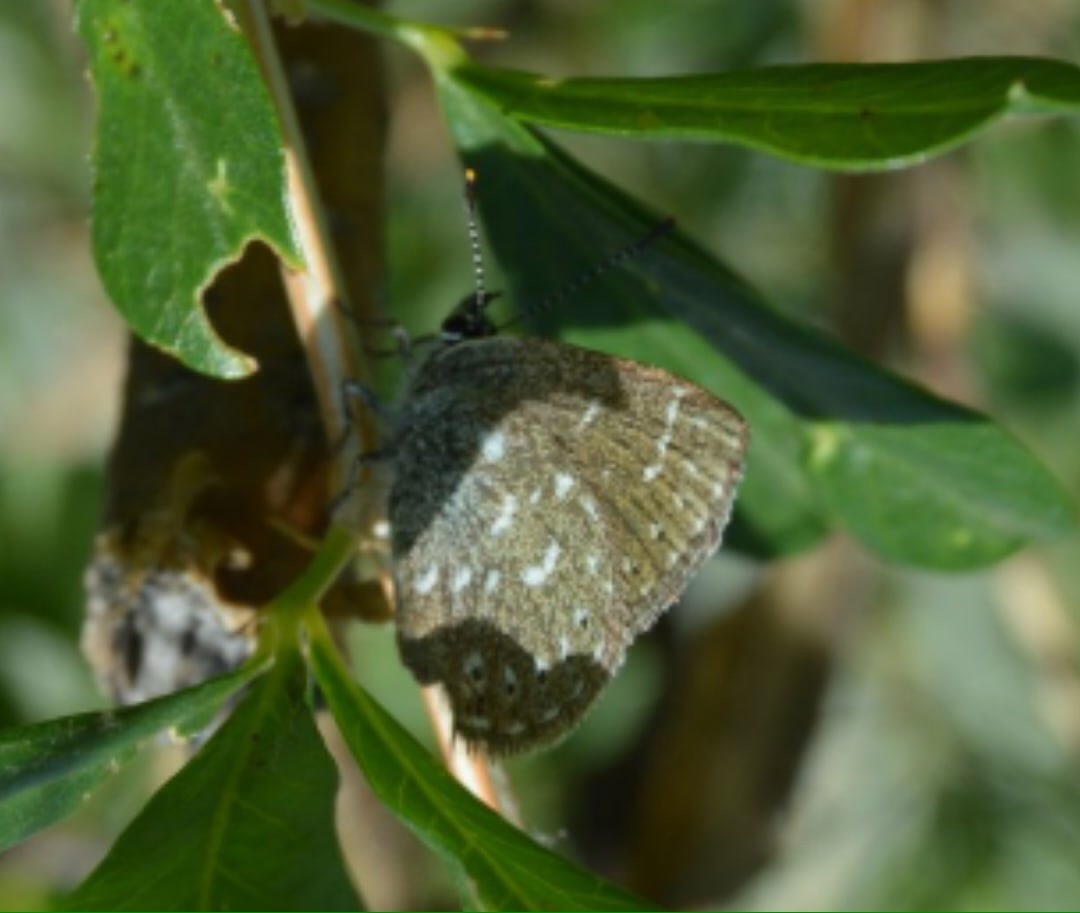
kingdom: Animalia
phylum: Arthropoda
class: Insecta
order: Lepidoptera
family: Lycaenidae
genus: Thecla
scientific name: Thecla rhymnus
